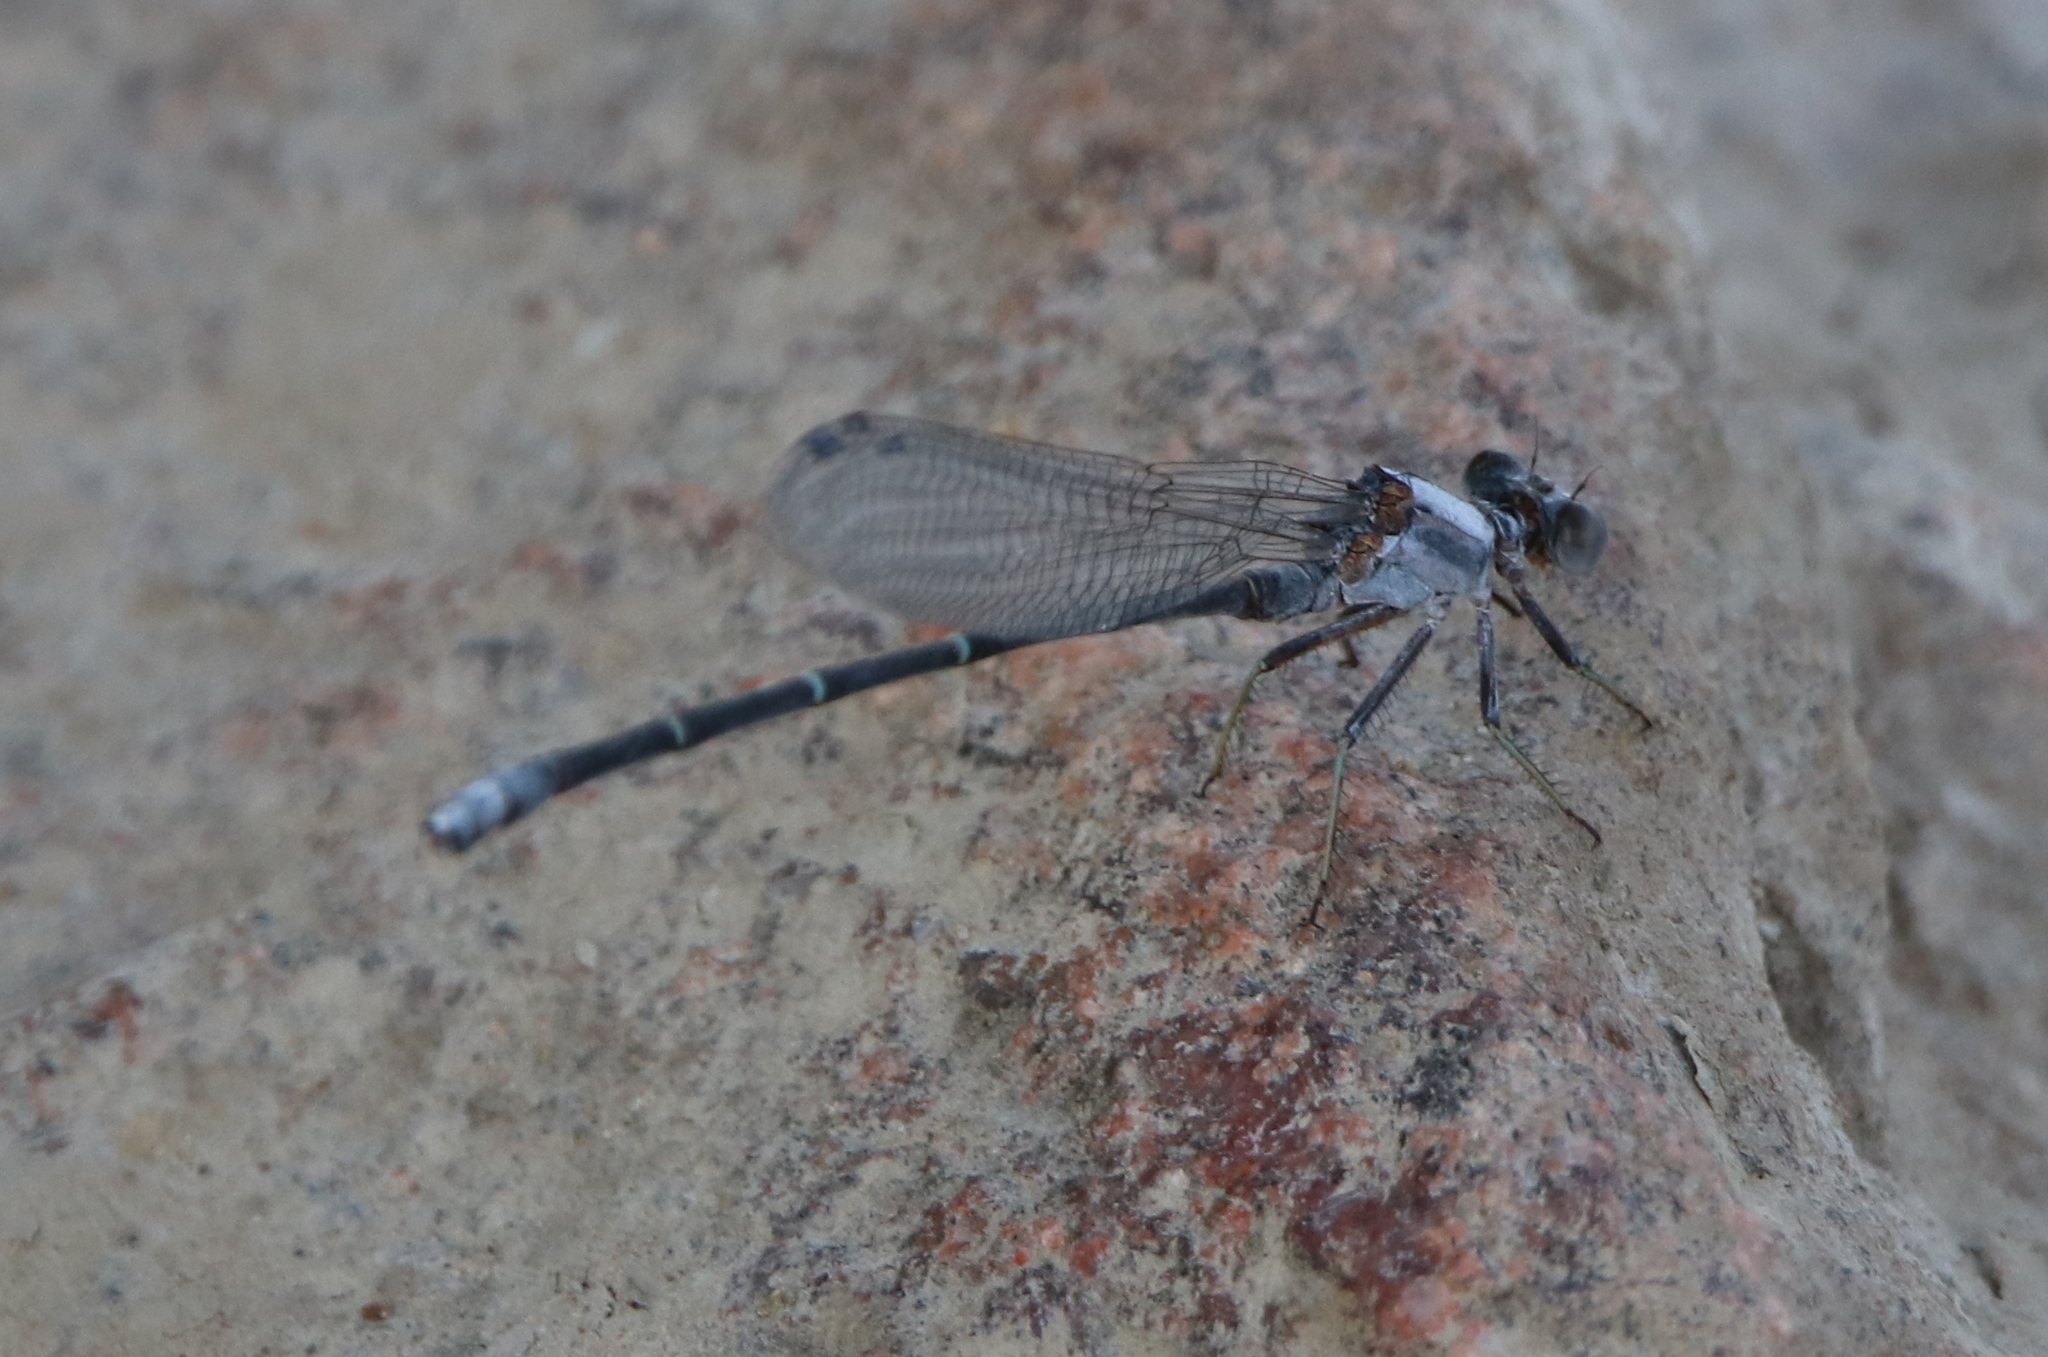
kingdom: Animalia
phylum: Arthropoda
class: Insecta
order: Odonata
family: Coenagrionidae
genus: Argia
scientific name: Argia moesta
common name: Powdered dancer
